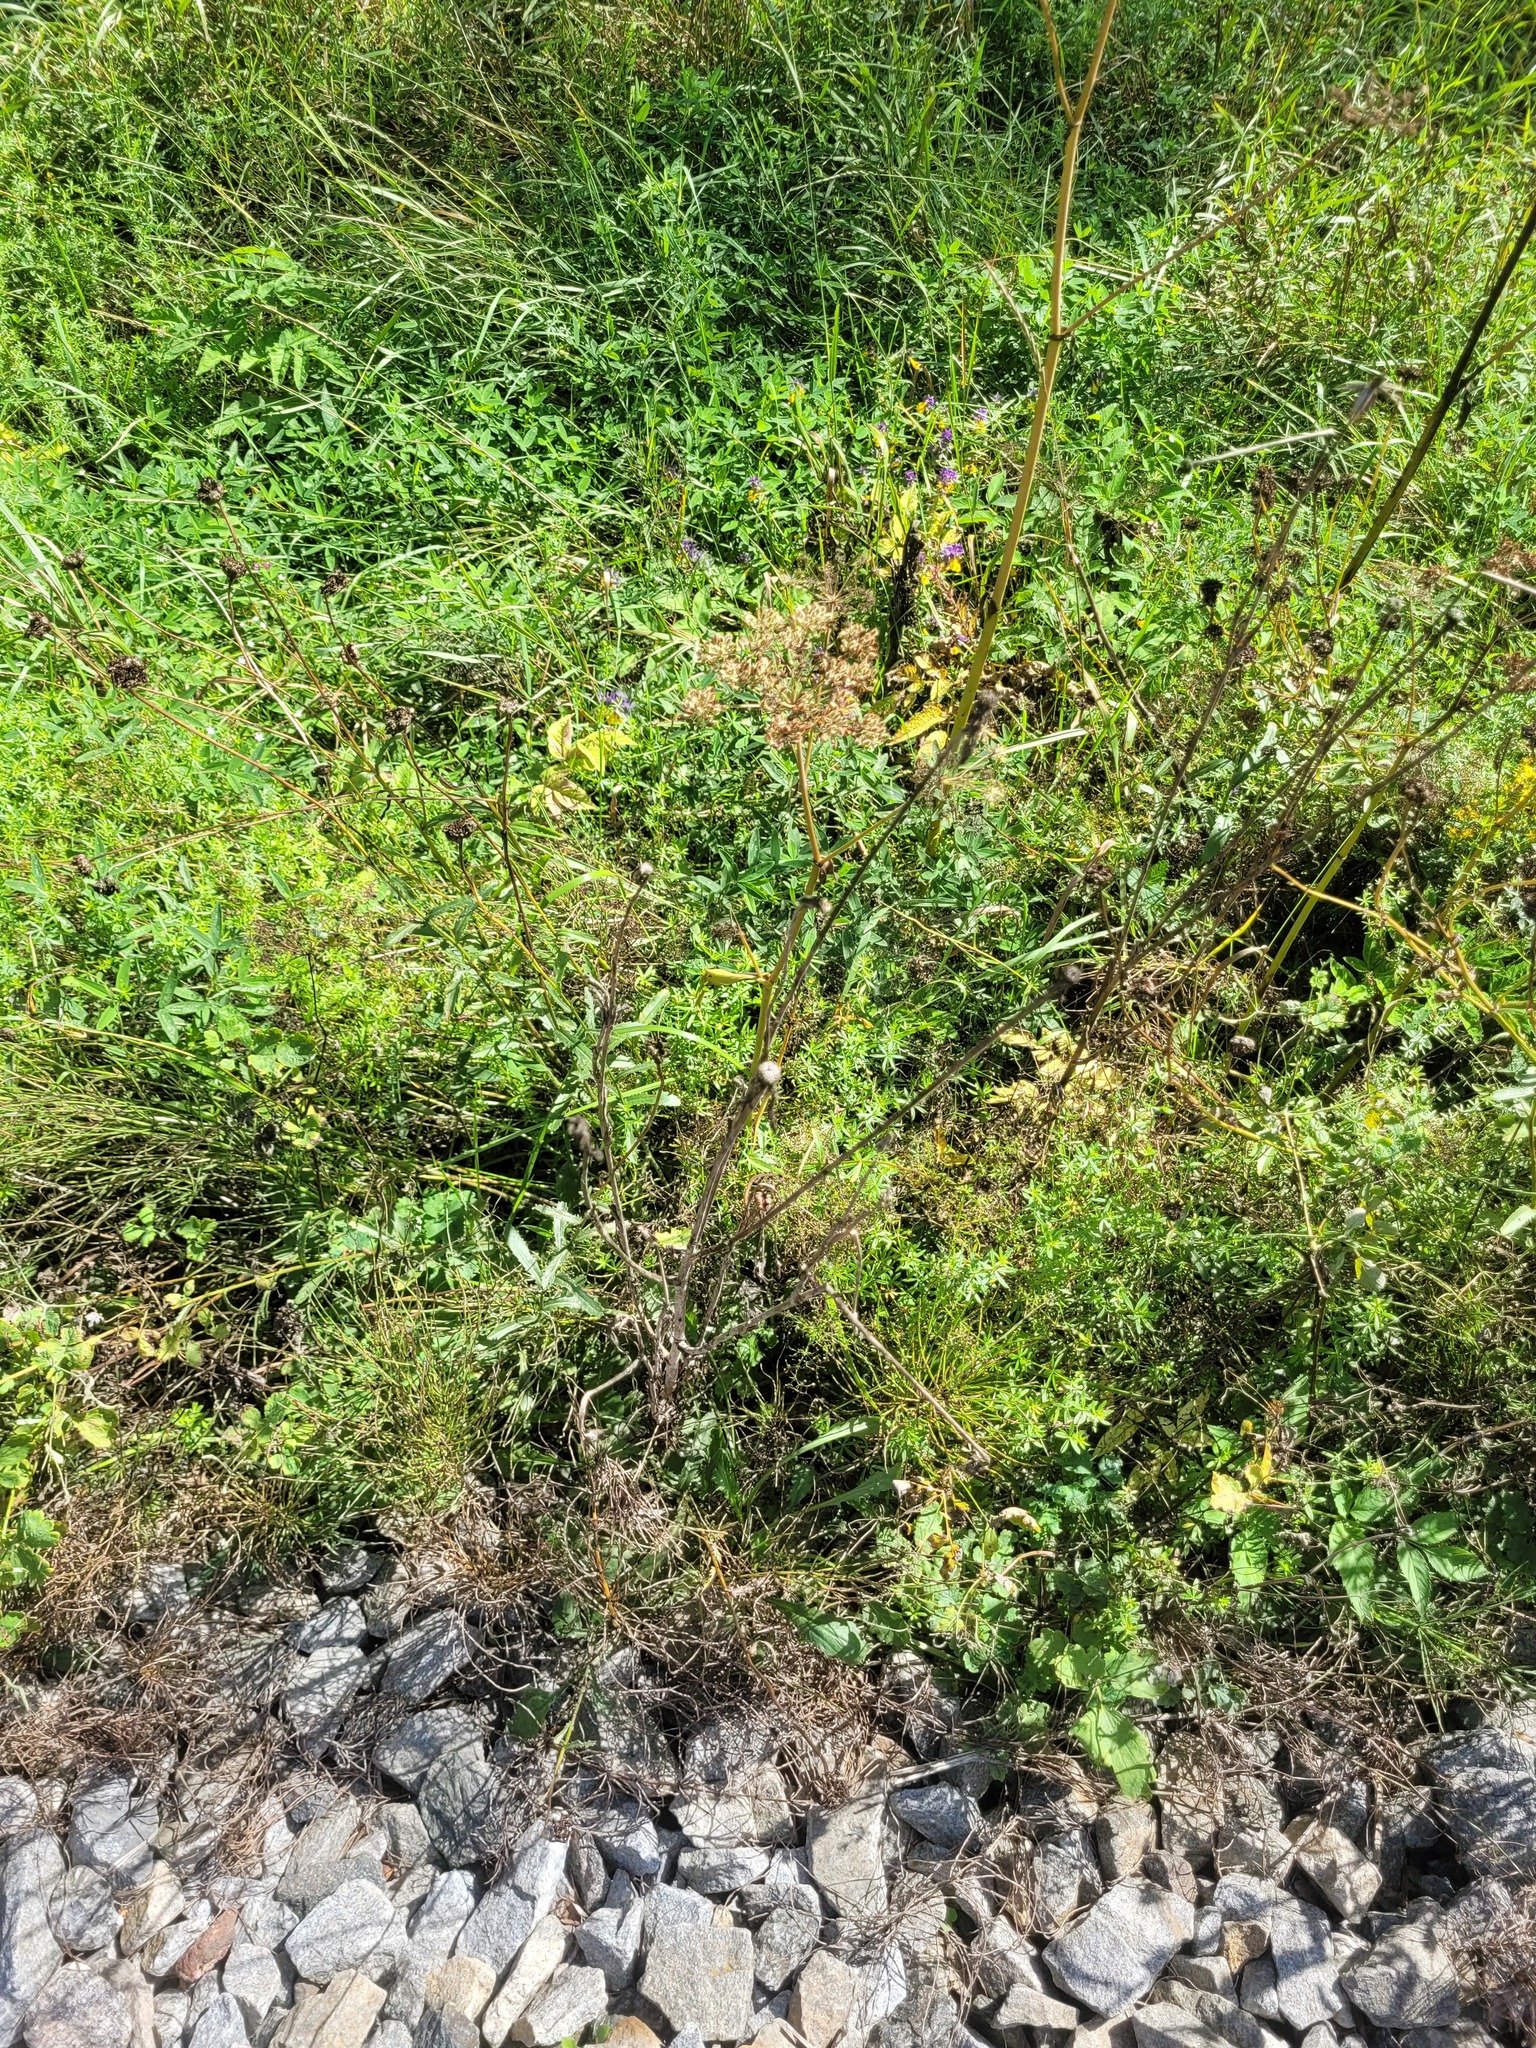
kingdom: Plantae
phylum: Tracheophyta
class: Magnoliopsida
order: Asterales
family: Asteraceae
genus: Tragopogon
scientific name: Tragopogon dubius
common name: Yellow salsify
